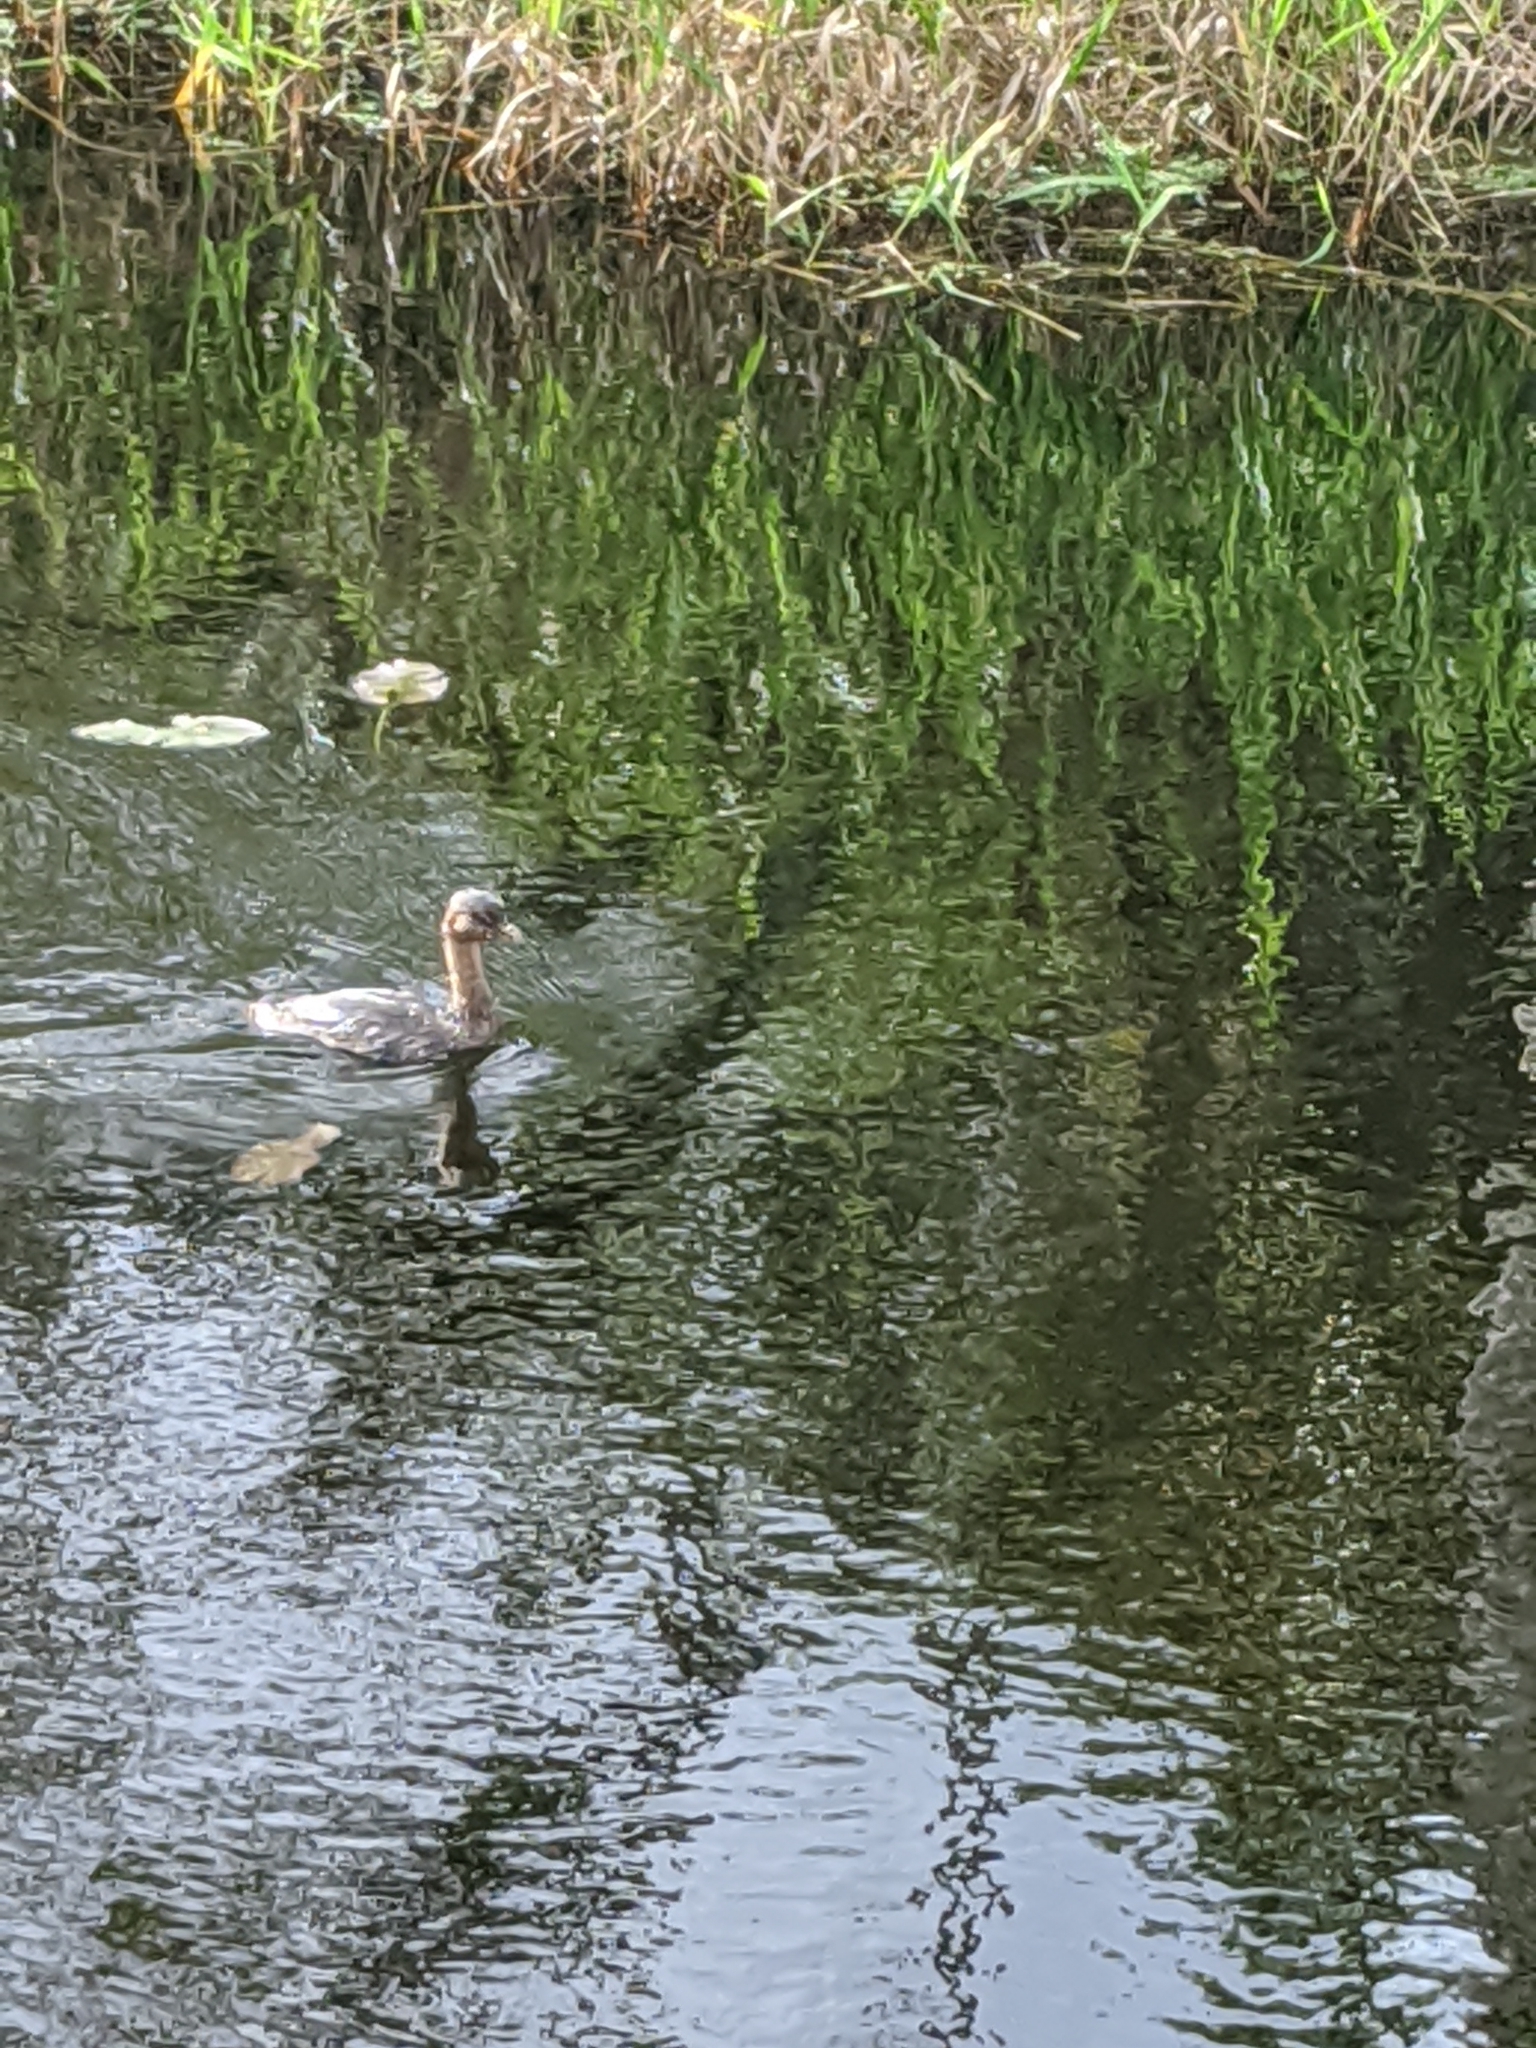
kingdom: Animalia
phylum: Chordata
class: Aves
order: Podicipediformes
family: Podicipedidae
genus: Podilymbus
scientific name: Podilymbus podiceps
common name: Pied-billed grebe
